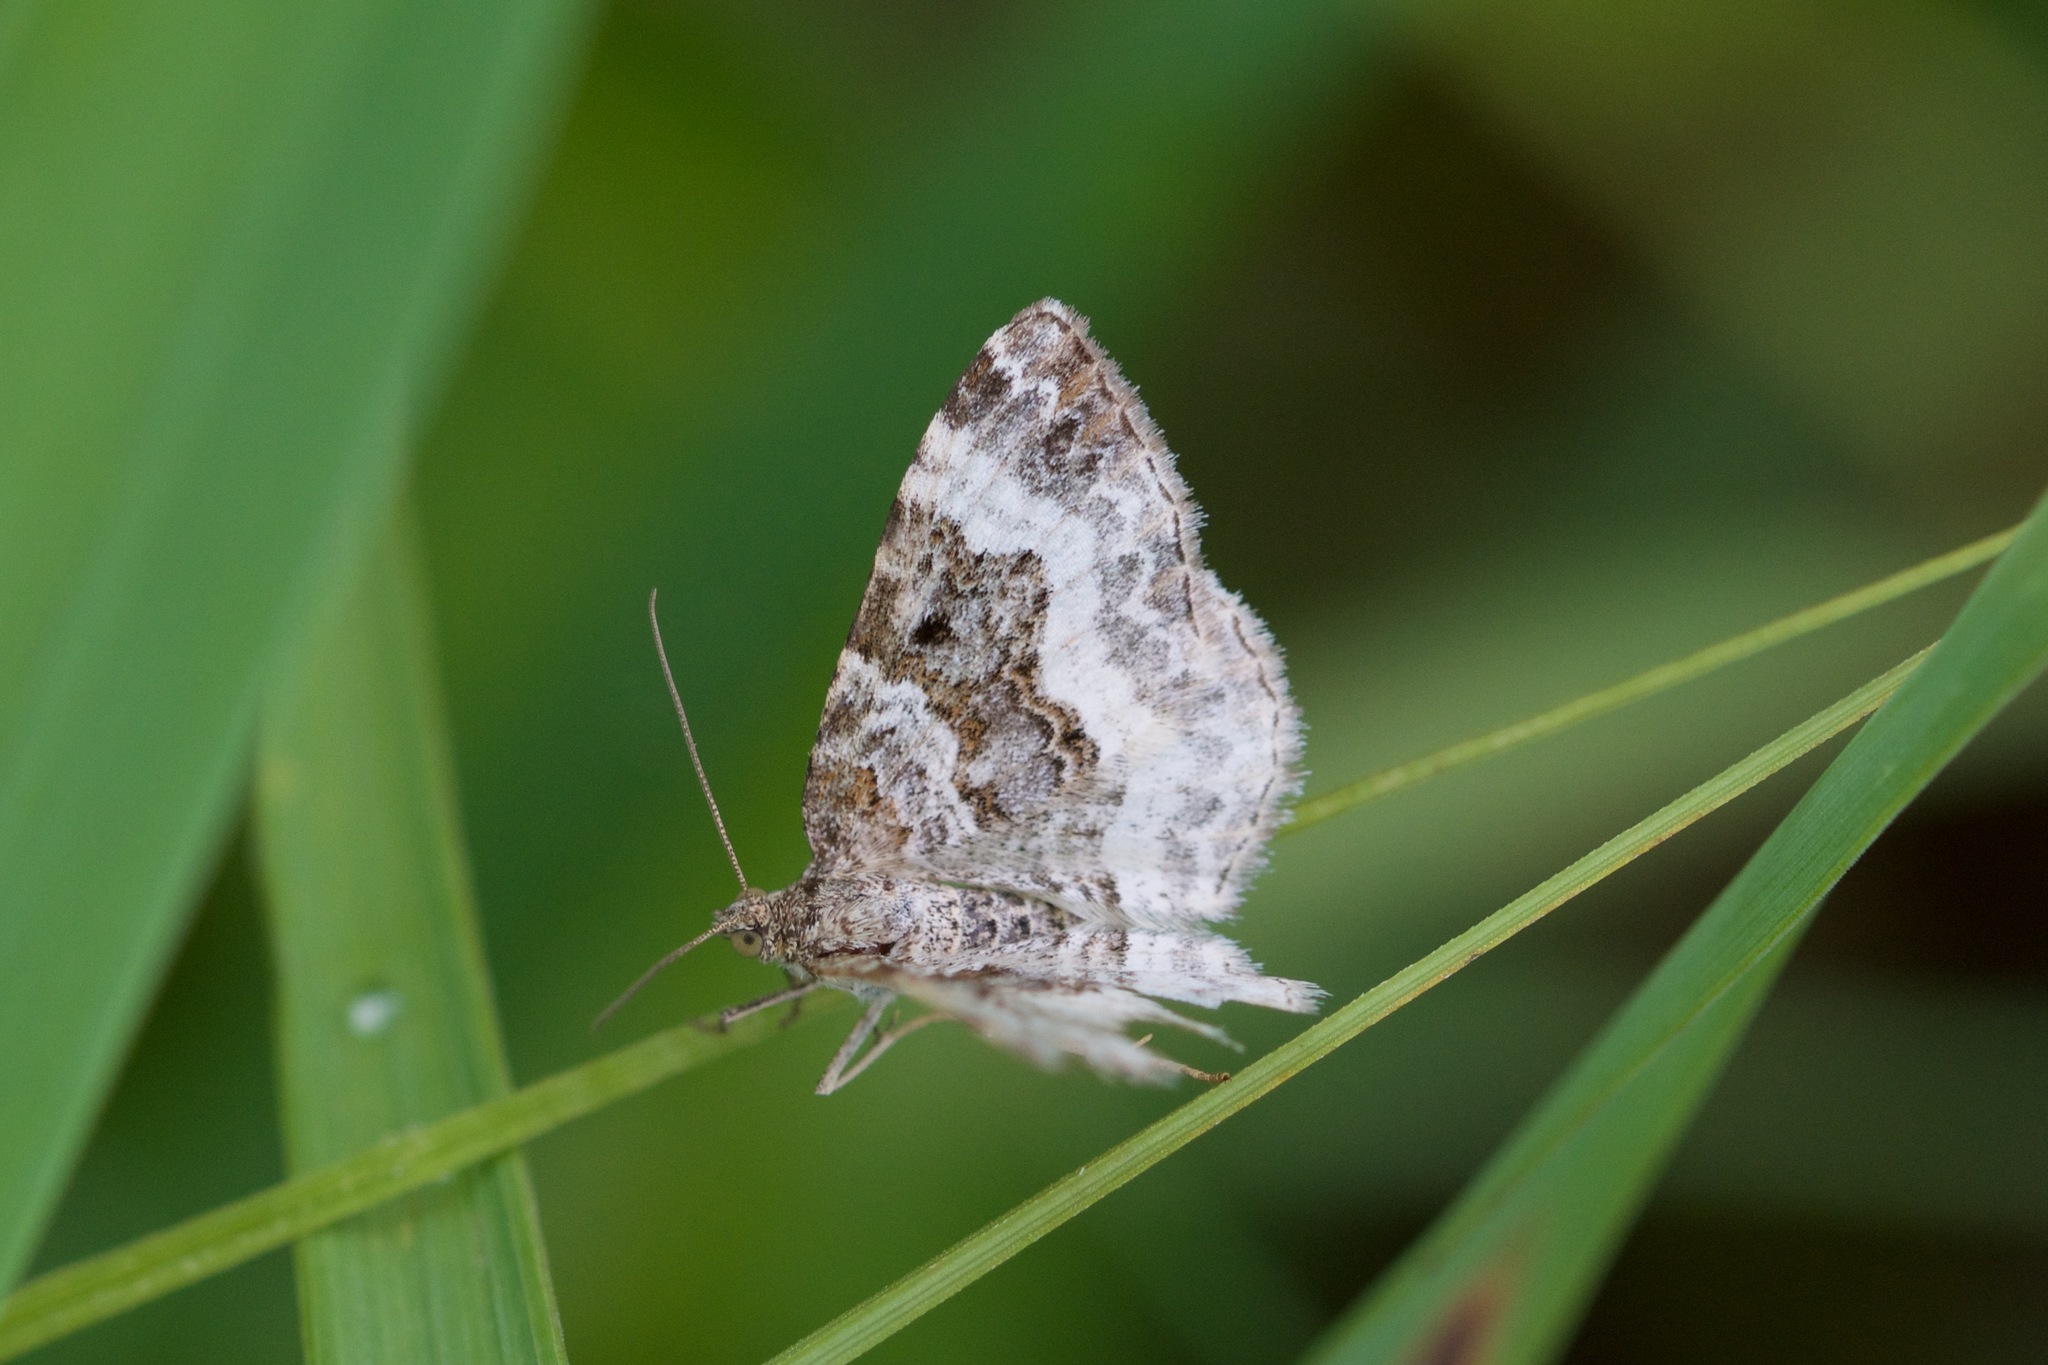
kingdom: Animalia
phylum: Arthropoda
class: Insecta
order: Lepidoptera
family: Geometridae
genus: Epirrhoe
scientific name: Epirrhoe alternata
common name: Common carpet
